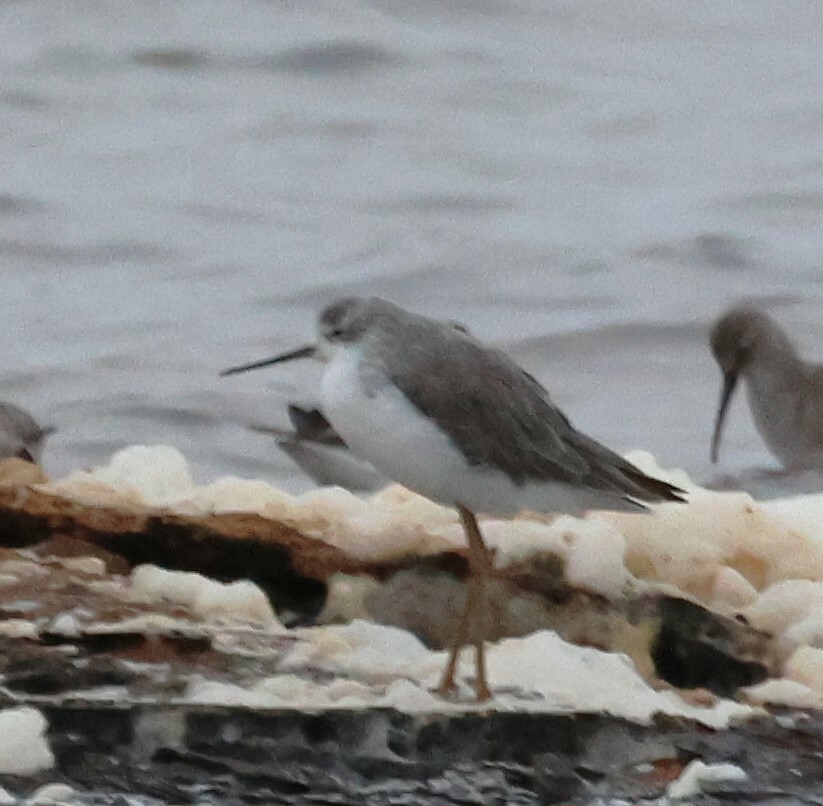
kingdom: Animalia
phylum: Chordata
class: Aves
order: Charadriiformes
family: Scolopacidae
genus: Tringa
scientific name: Tringa stagnatilis
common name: Marsh sandpiper
